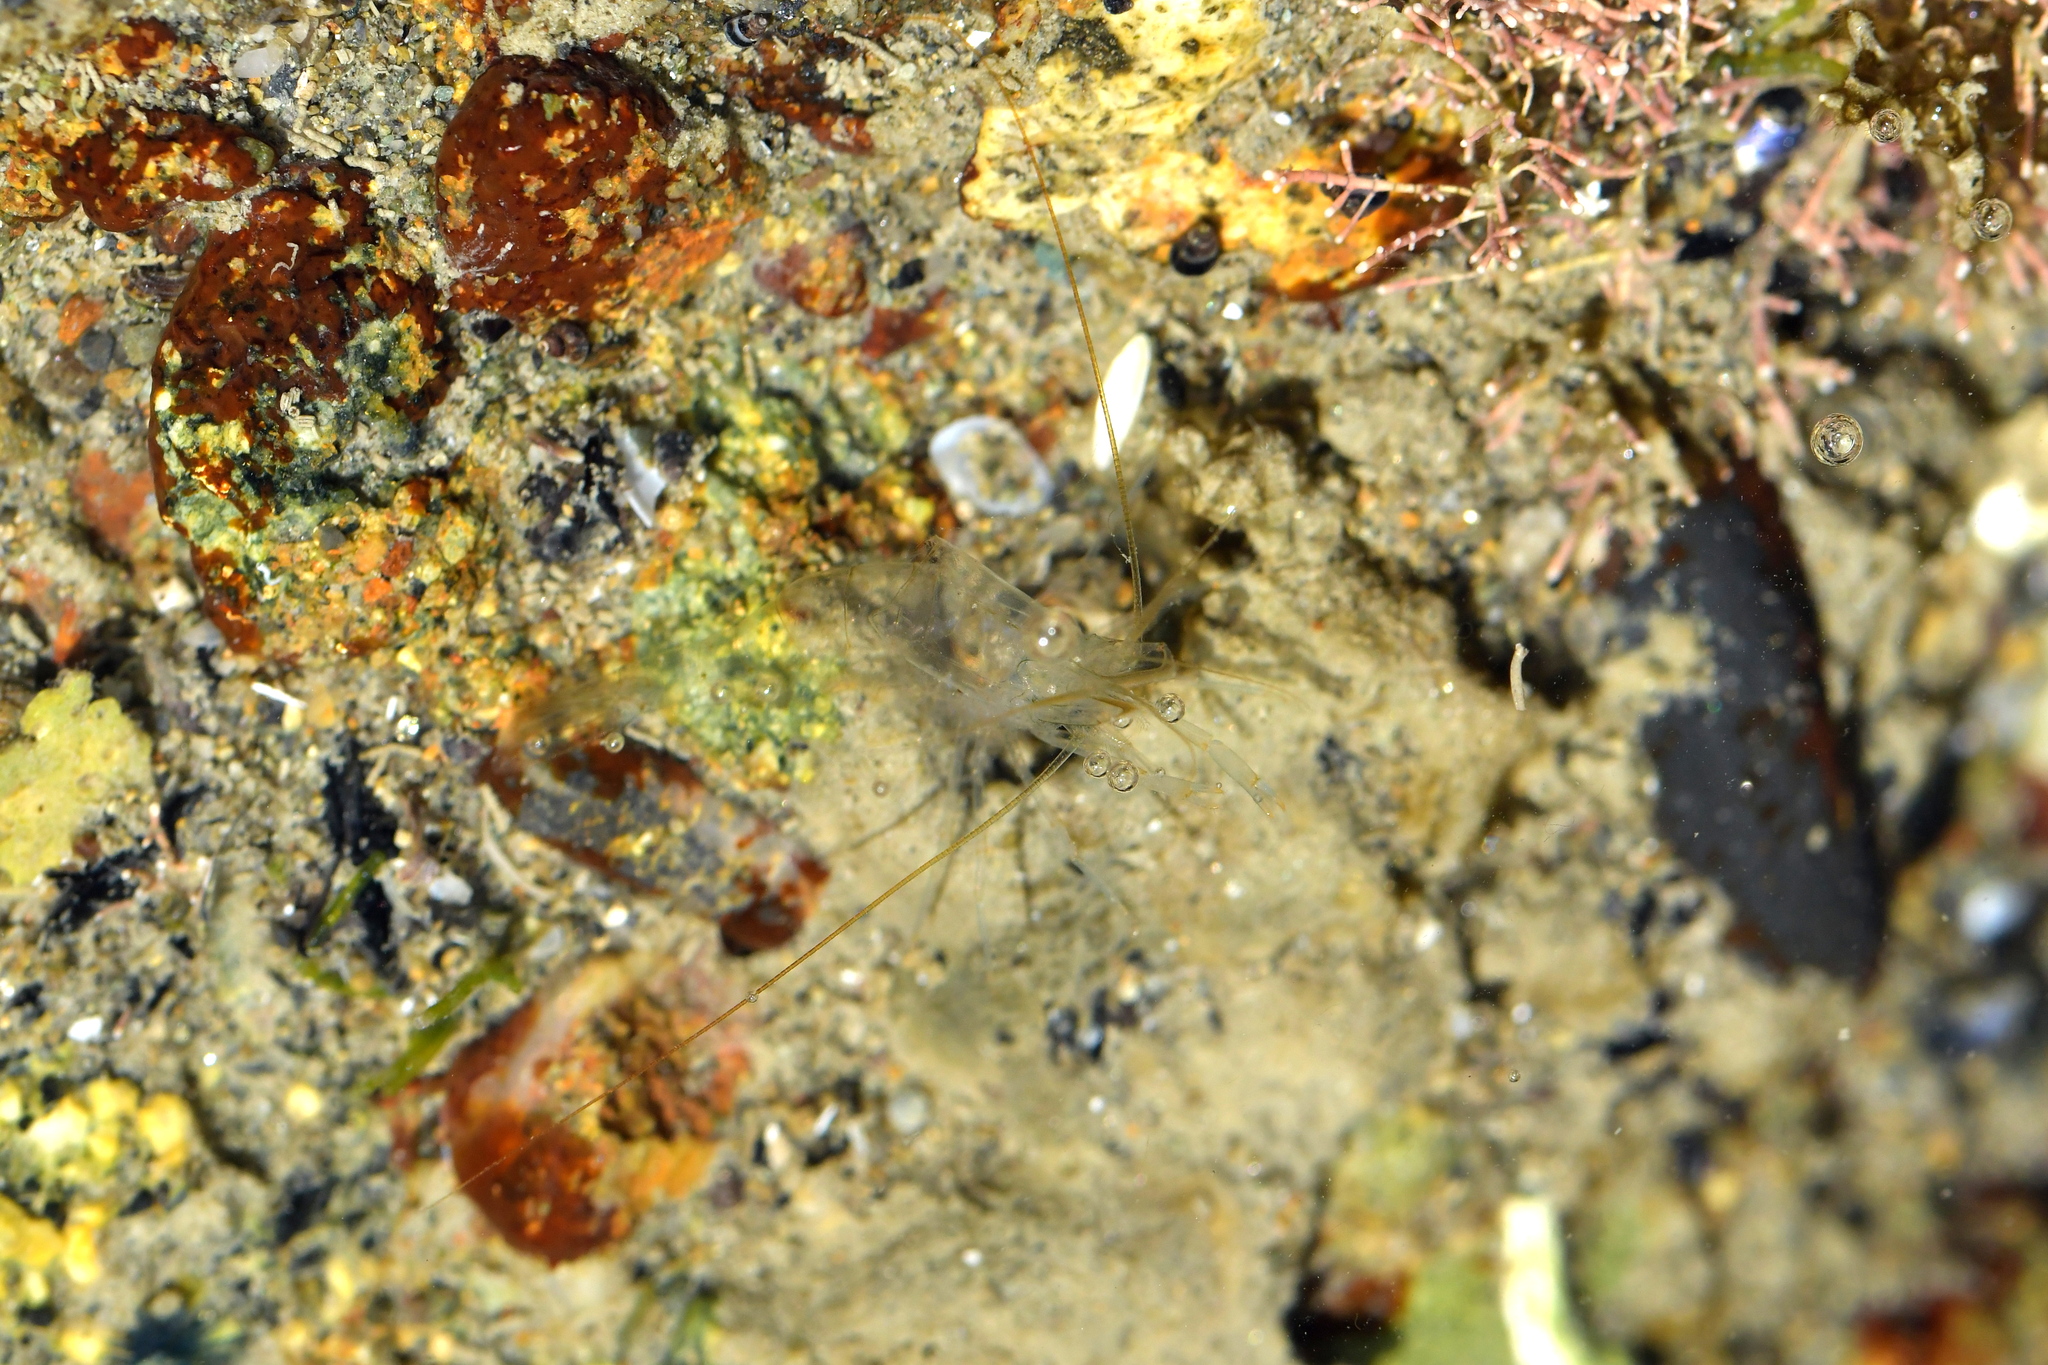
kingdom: Animalia
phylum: Arthropoda
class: Malacostraca
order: Decapoda
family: Palaemonidae
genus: Palaemon
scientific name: Palaemon affinis
